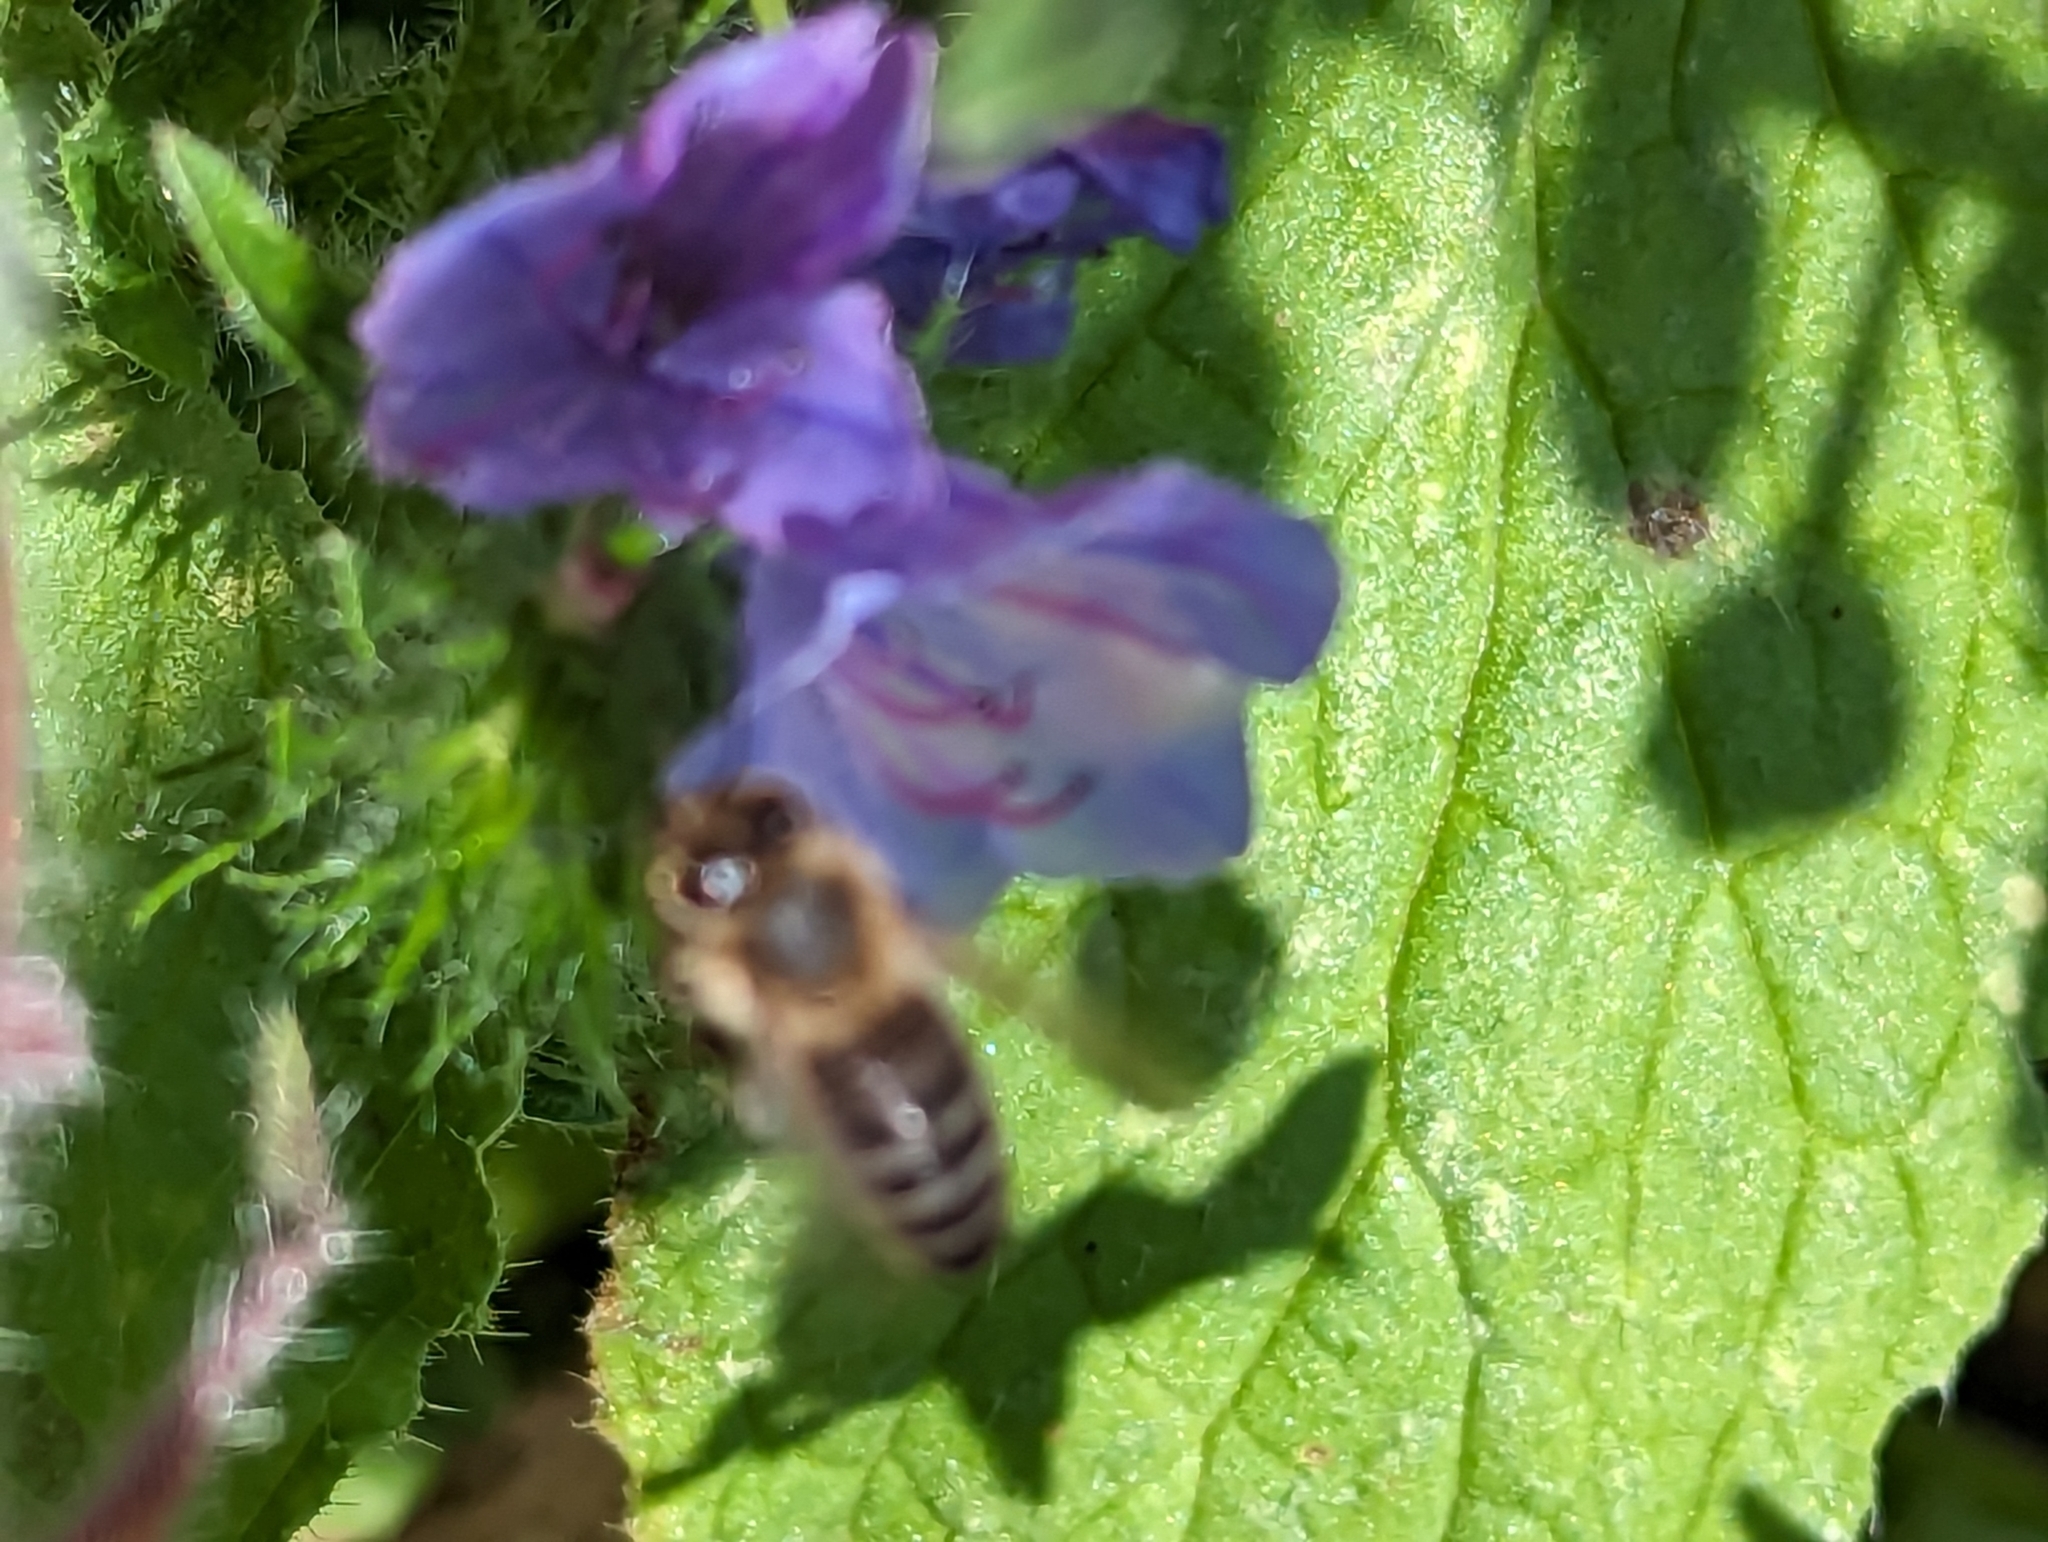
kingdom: Animalia
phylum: Arthropoda
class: Insecta
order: Hymenoptera
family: Apidae
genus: Apis
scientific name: Apis mellifera
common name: Honey bee
